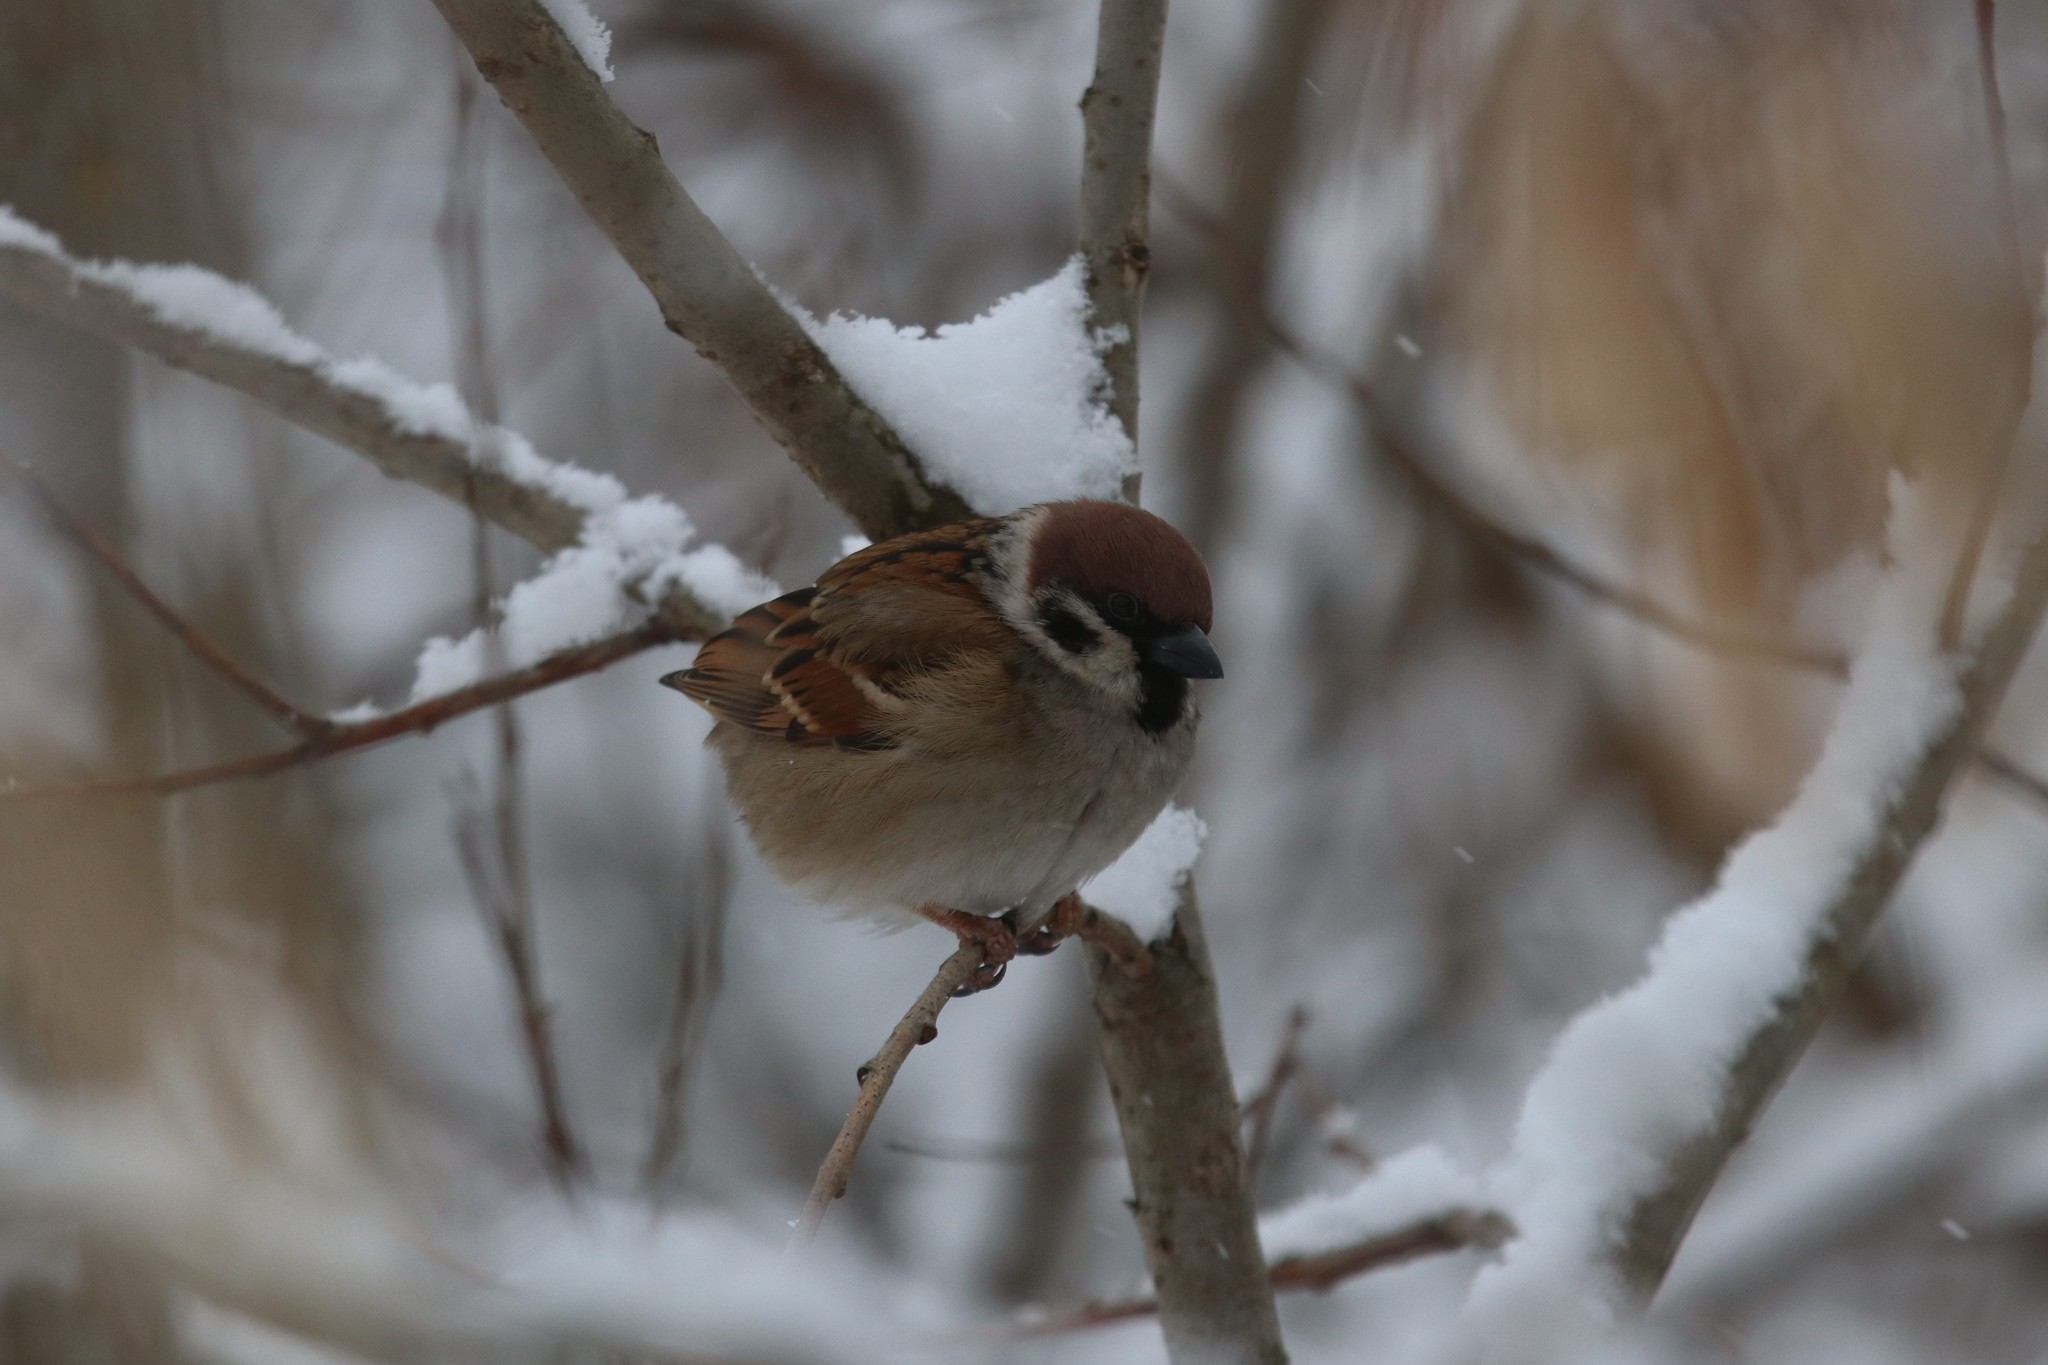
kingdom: Animalia
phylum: Chordata
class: Aves
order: Passeriformes
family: Passeridae
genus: Passer
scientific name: Passer montanus
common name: Eurasian tree sparrow
